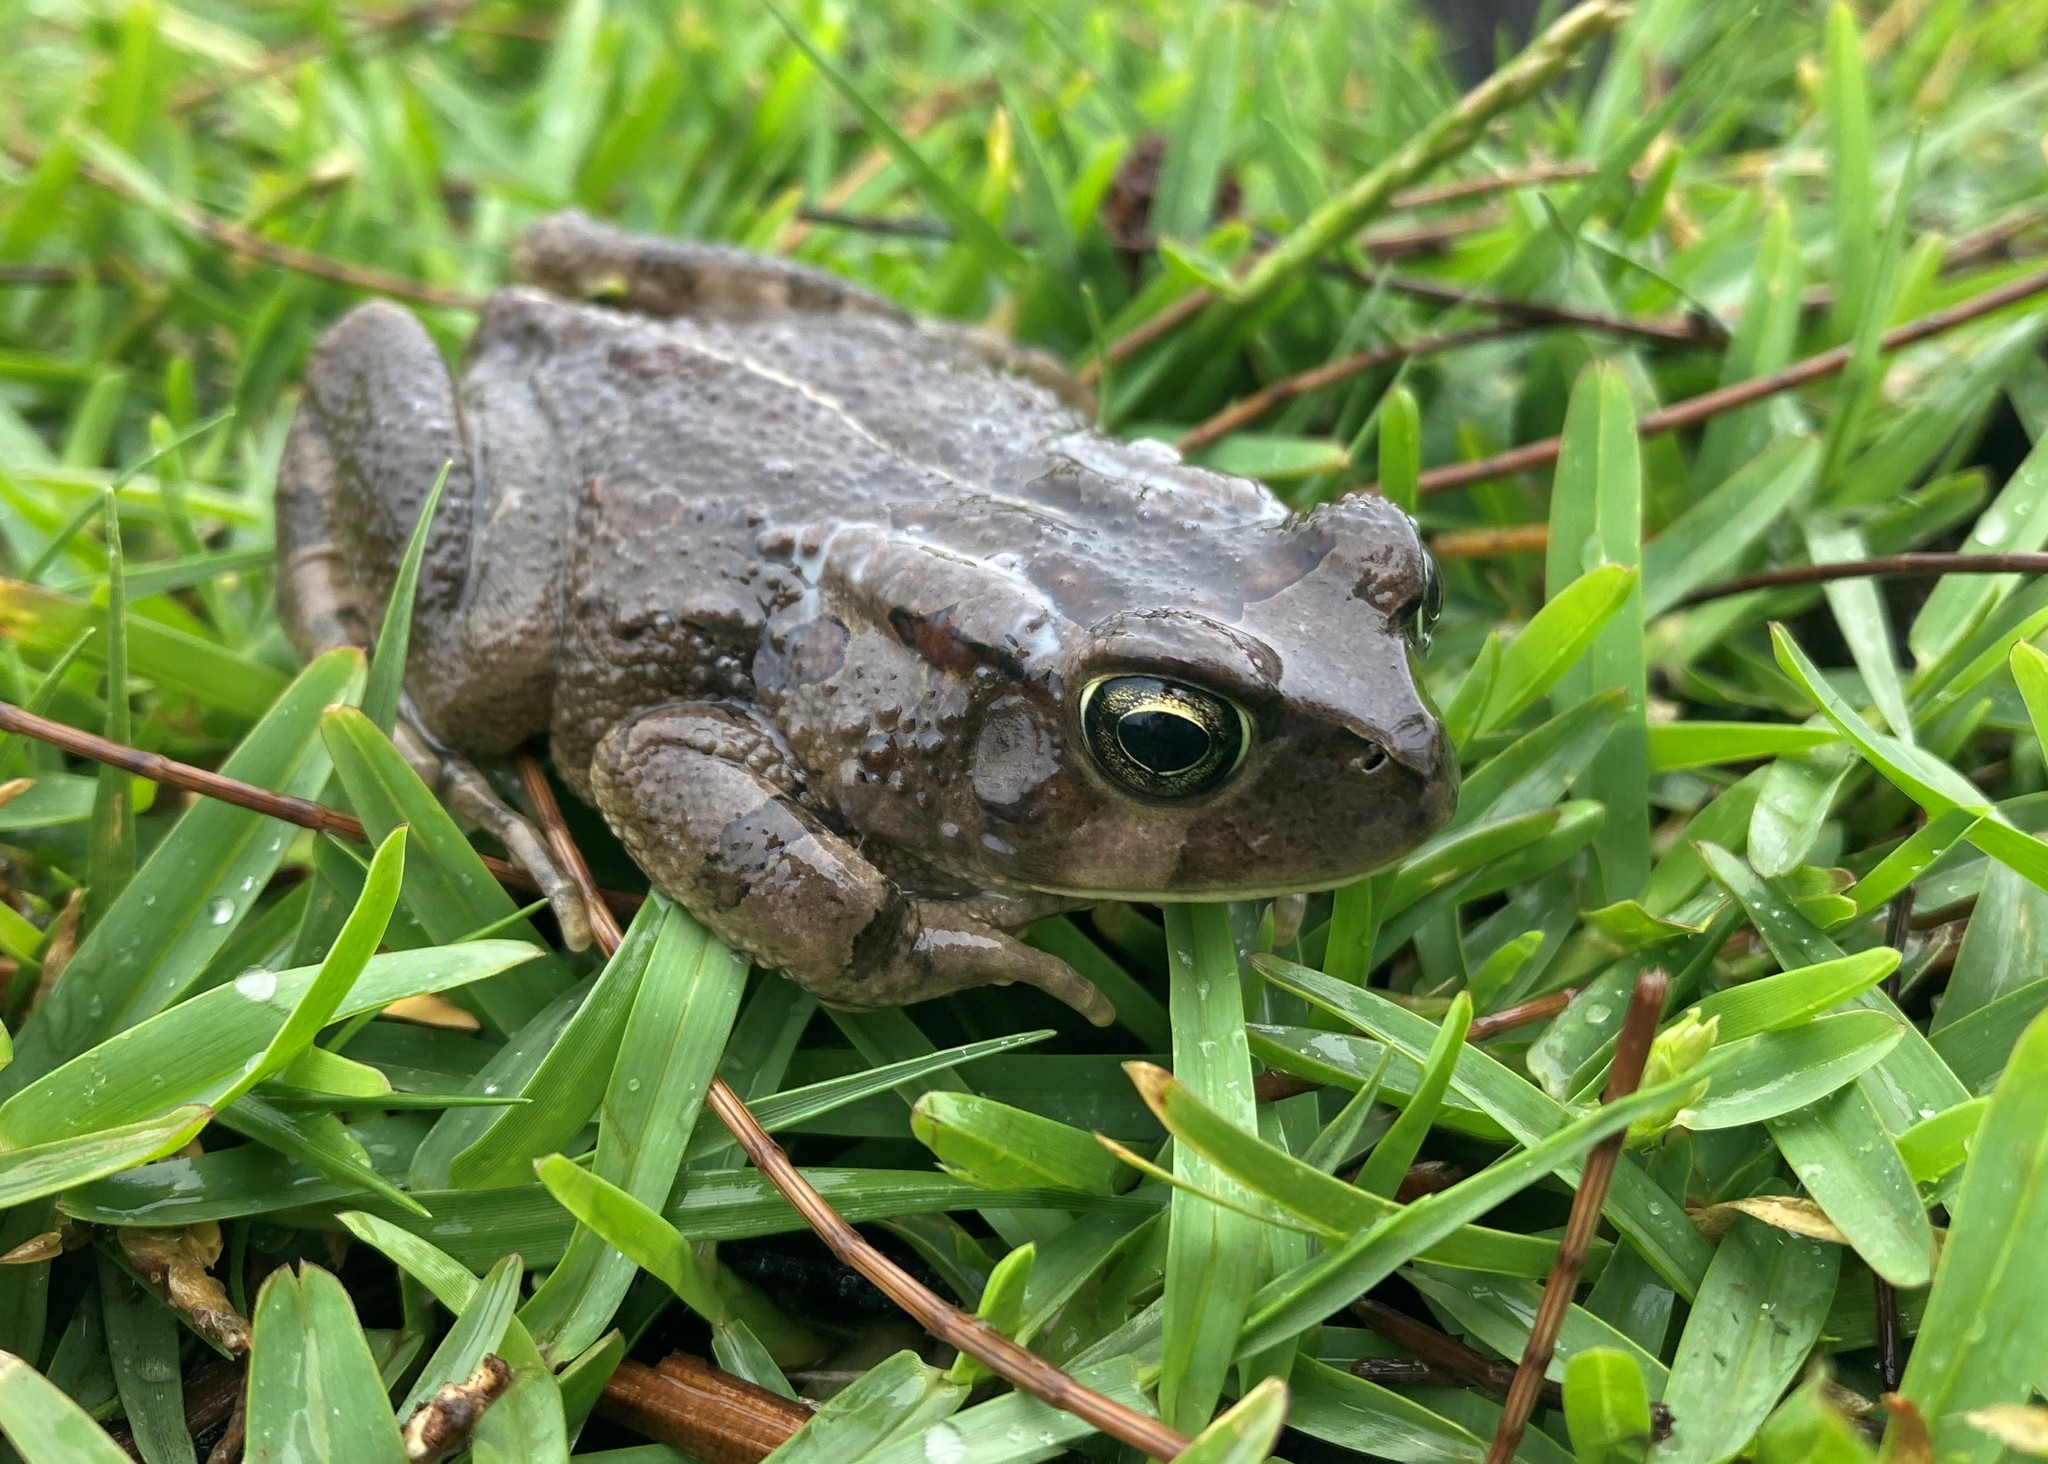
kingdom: Animalia
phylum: Chordata
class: Amphibia
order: Anura
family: Bufonidae
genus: Sclerophrys
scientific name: Sclerophrys capensis
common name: Ranger’s toad
